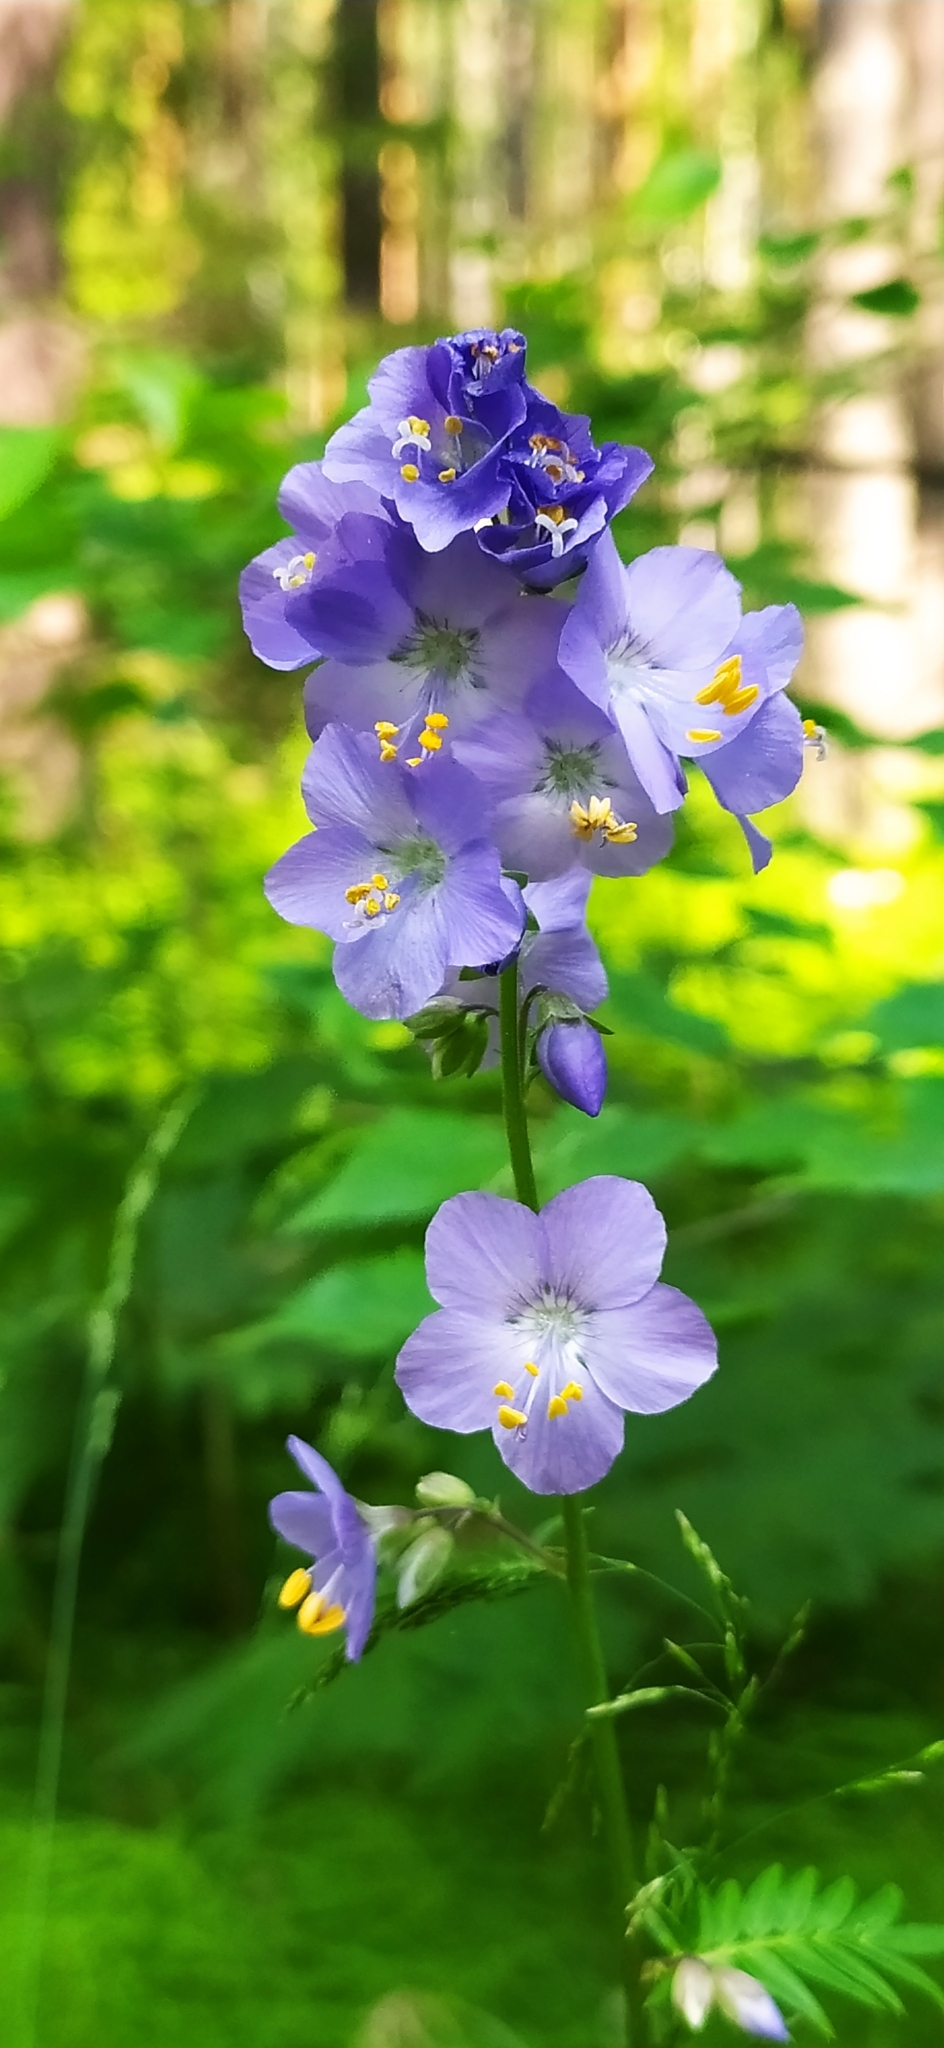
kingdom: Plantae
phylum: Tracheophyta
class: Magnoliopsida
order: Ericales
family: Polemoniaceae
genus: Polemonium
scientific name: Polemonium caeruleum
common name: Jacob's-ladder
